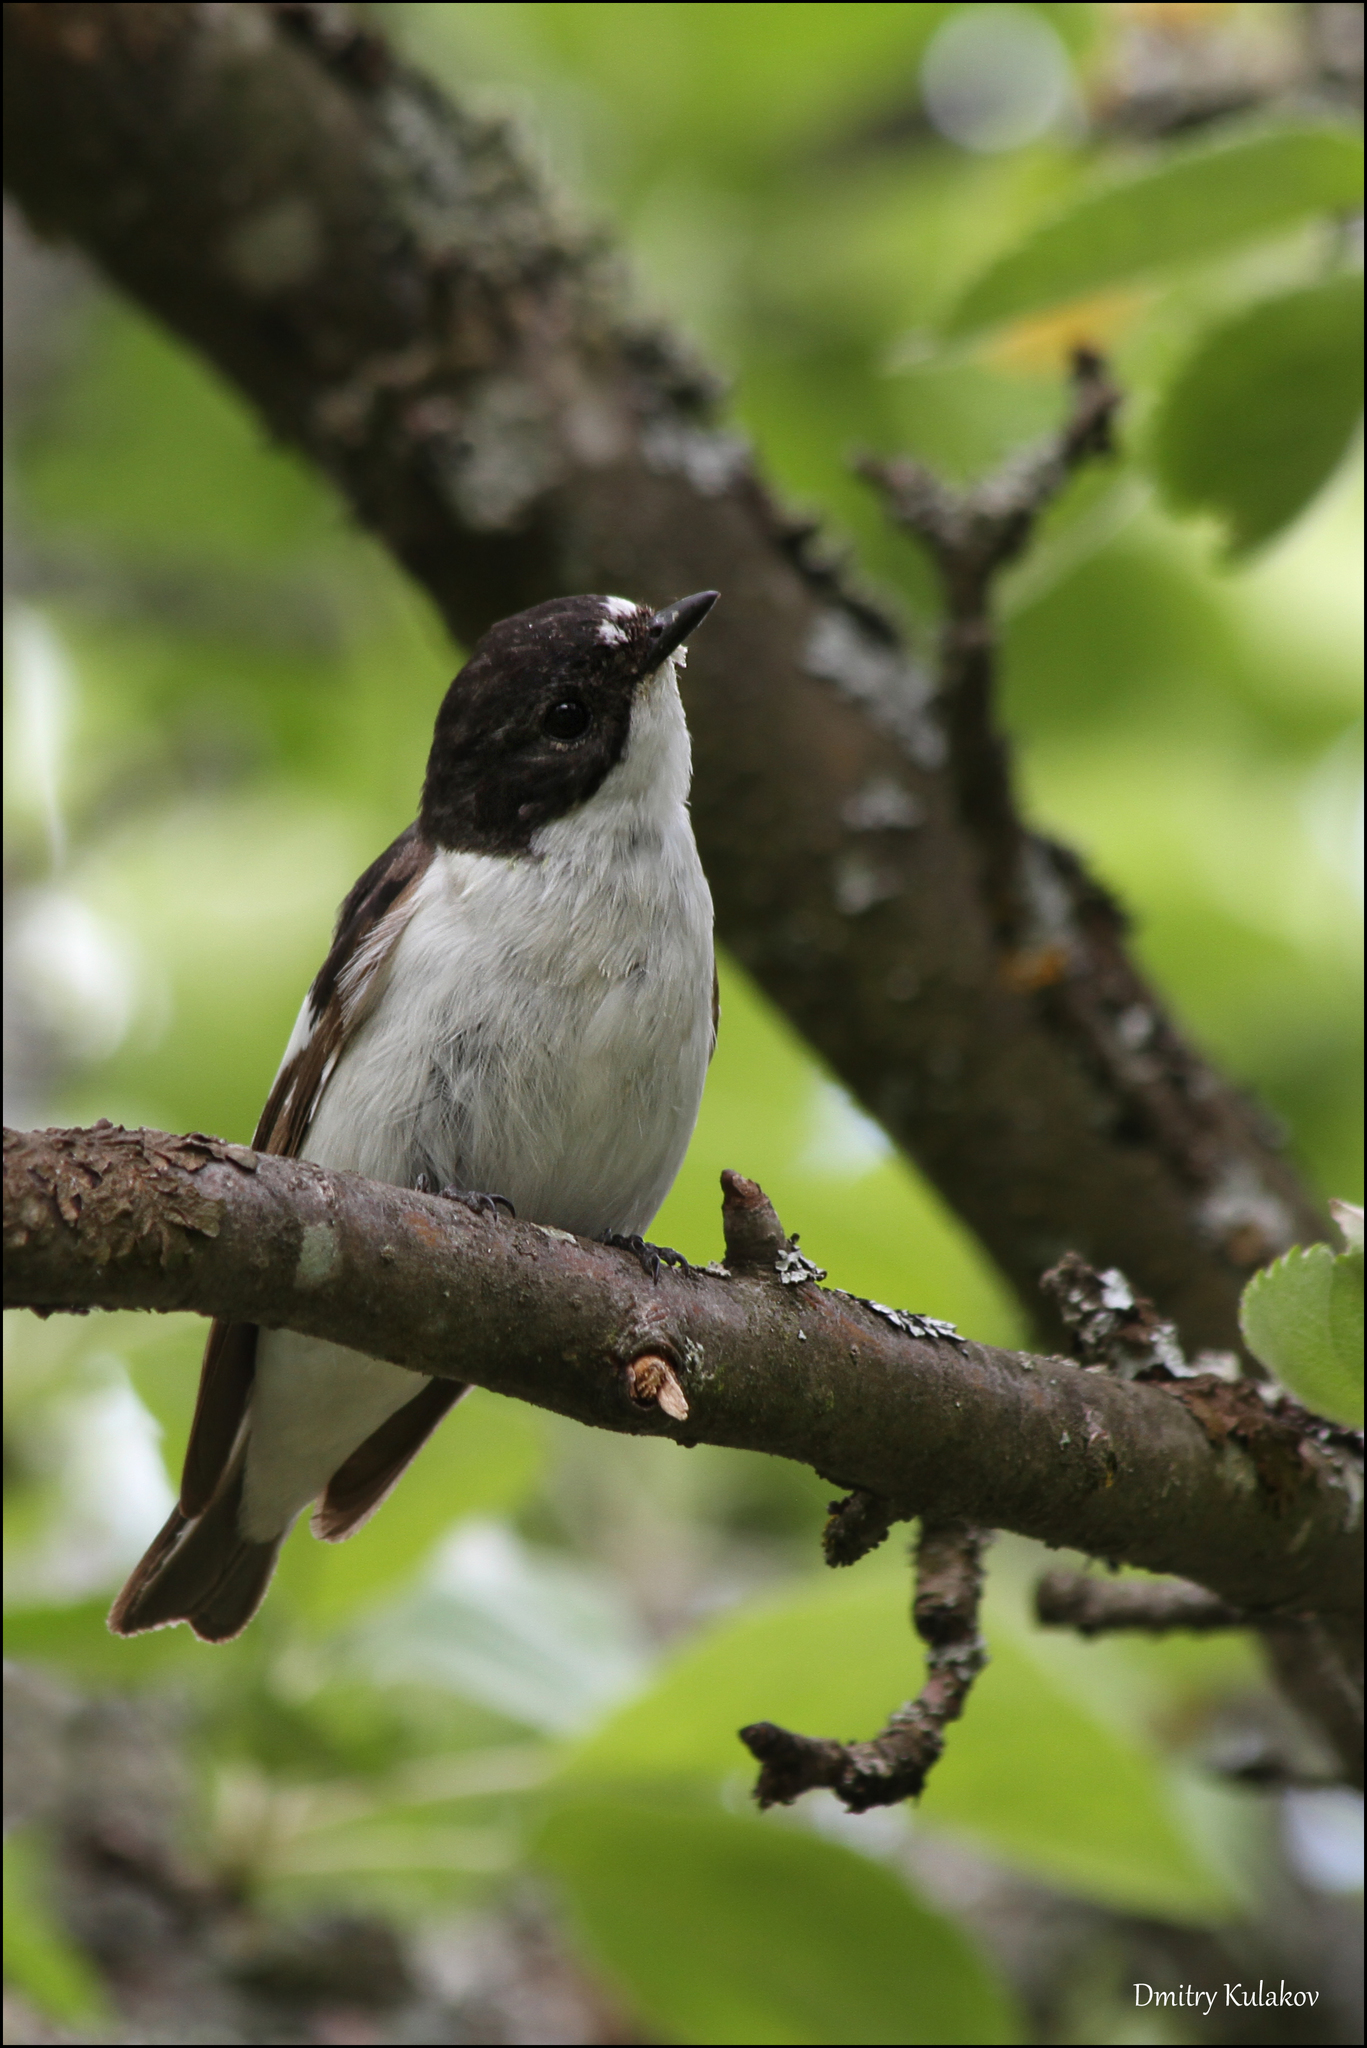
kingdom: Animalia
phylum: Chordata
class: Aves
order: Passeriformes
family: Muscicapidae
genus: Ficedula
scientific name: Ficedula hypoleuca
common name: European pied flycatcher
